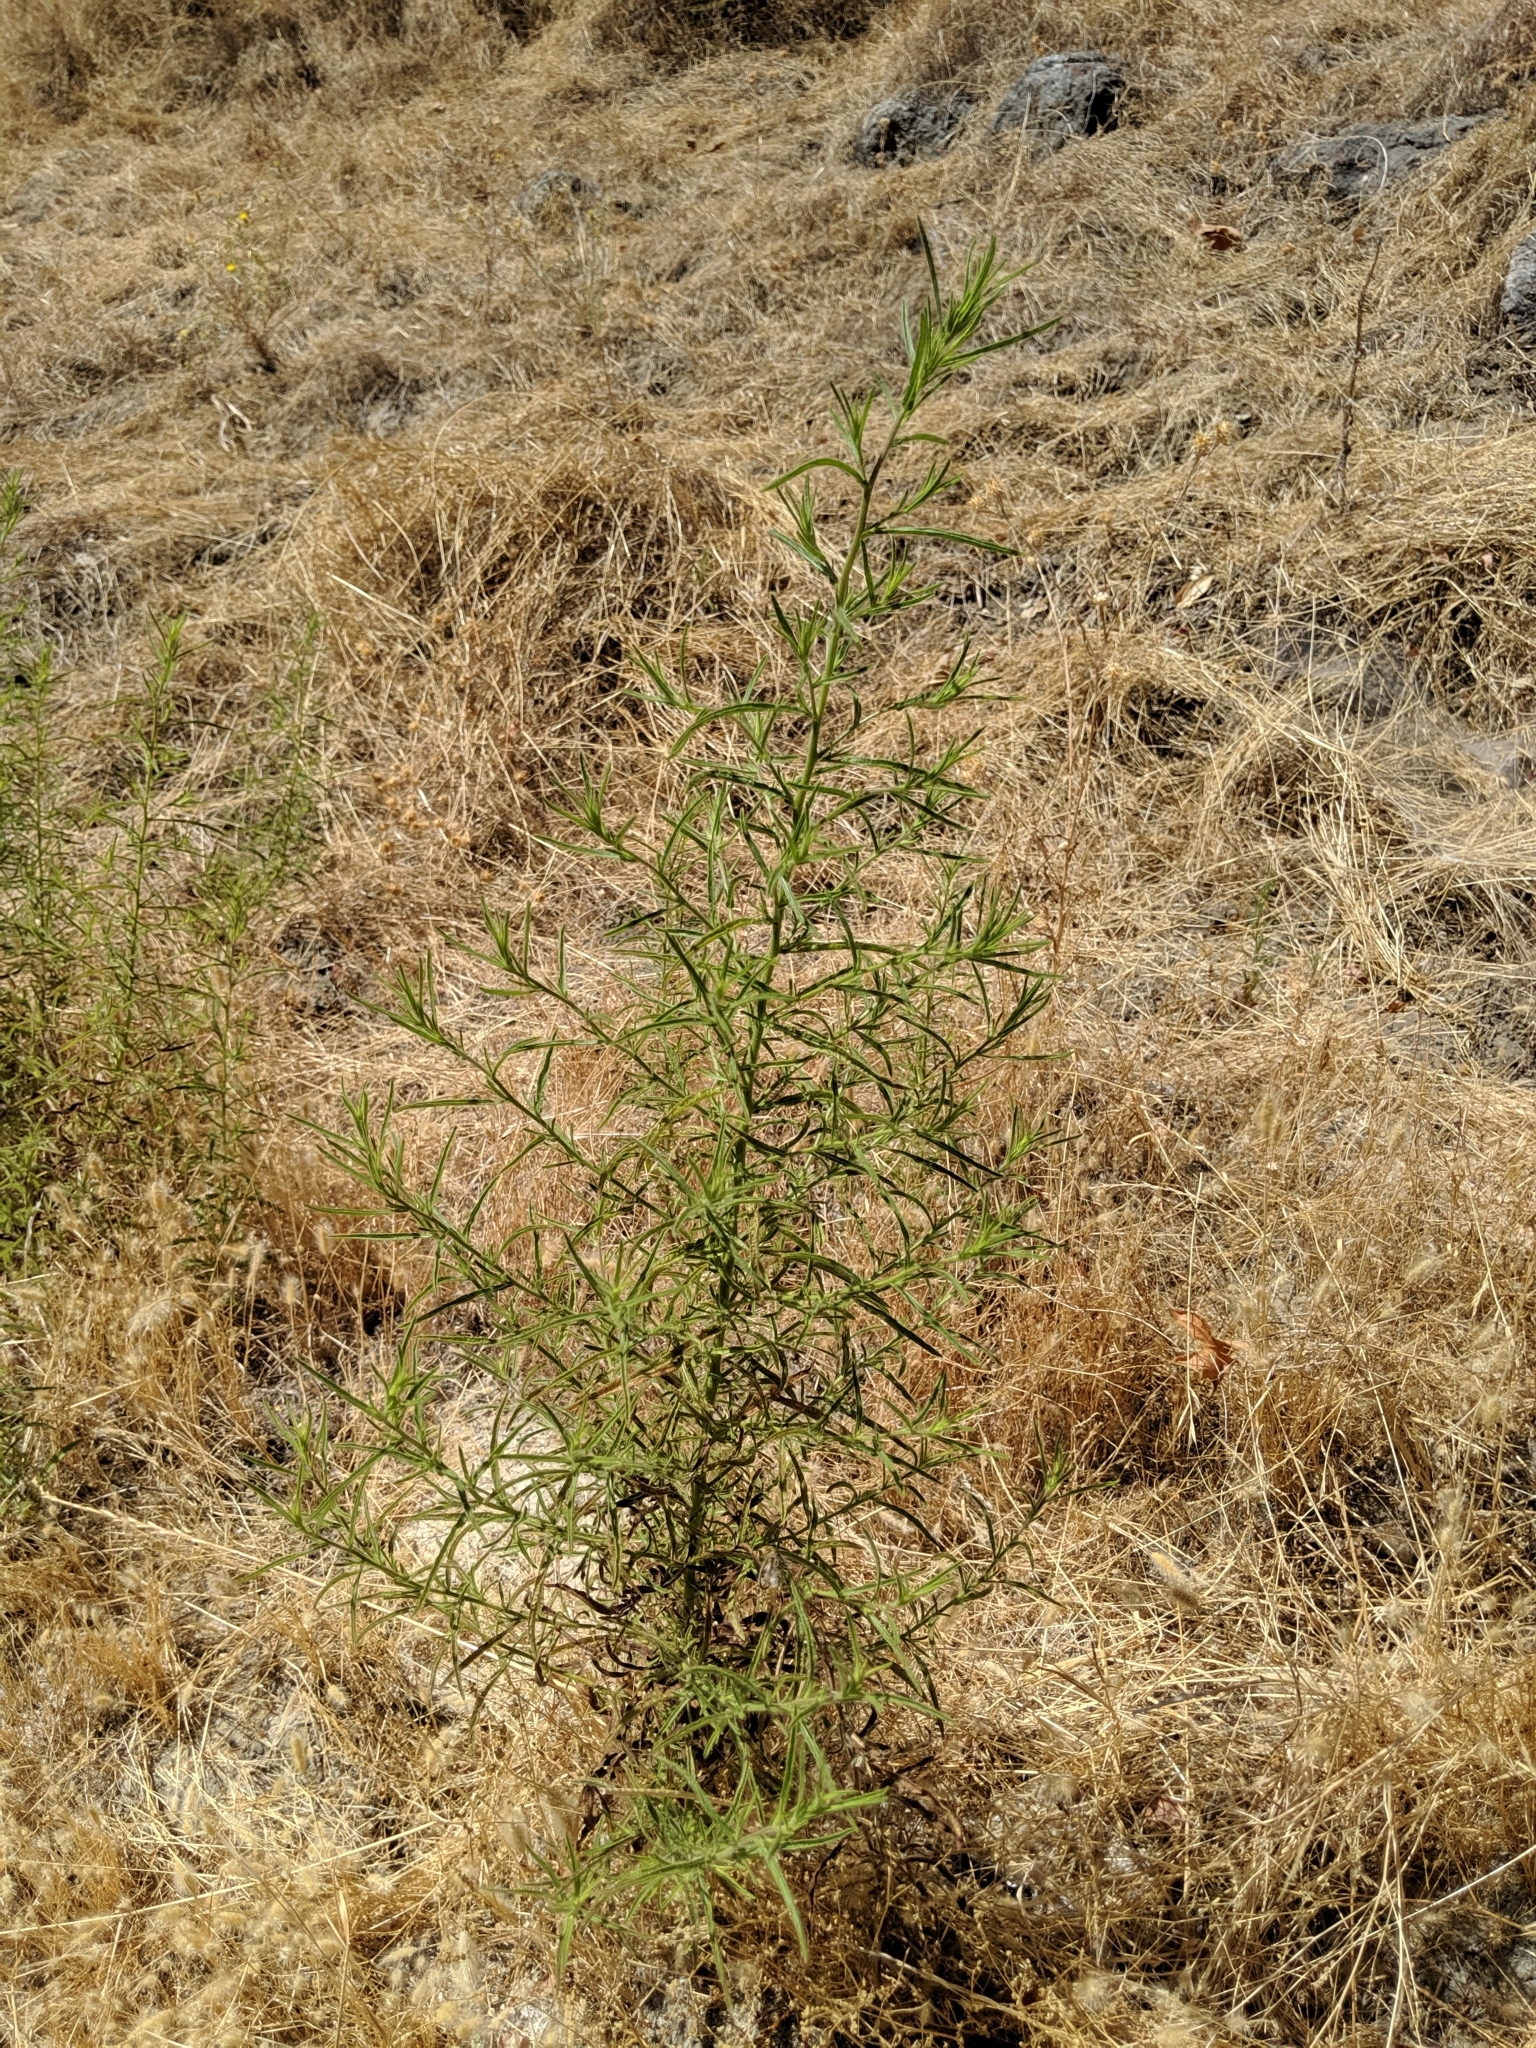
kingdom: Plantae
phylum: Tracheophyta
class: Magnoliopsida
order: Asterales
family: Asteraceae
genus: Dittrichia
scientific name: Dittrichia graveolens
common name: Stinking fleabane
